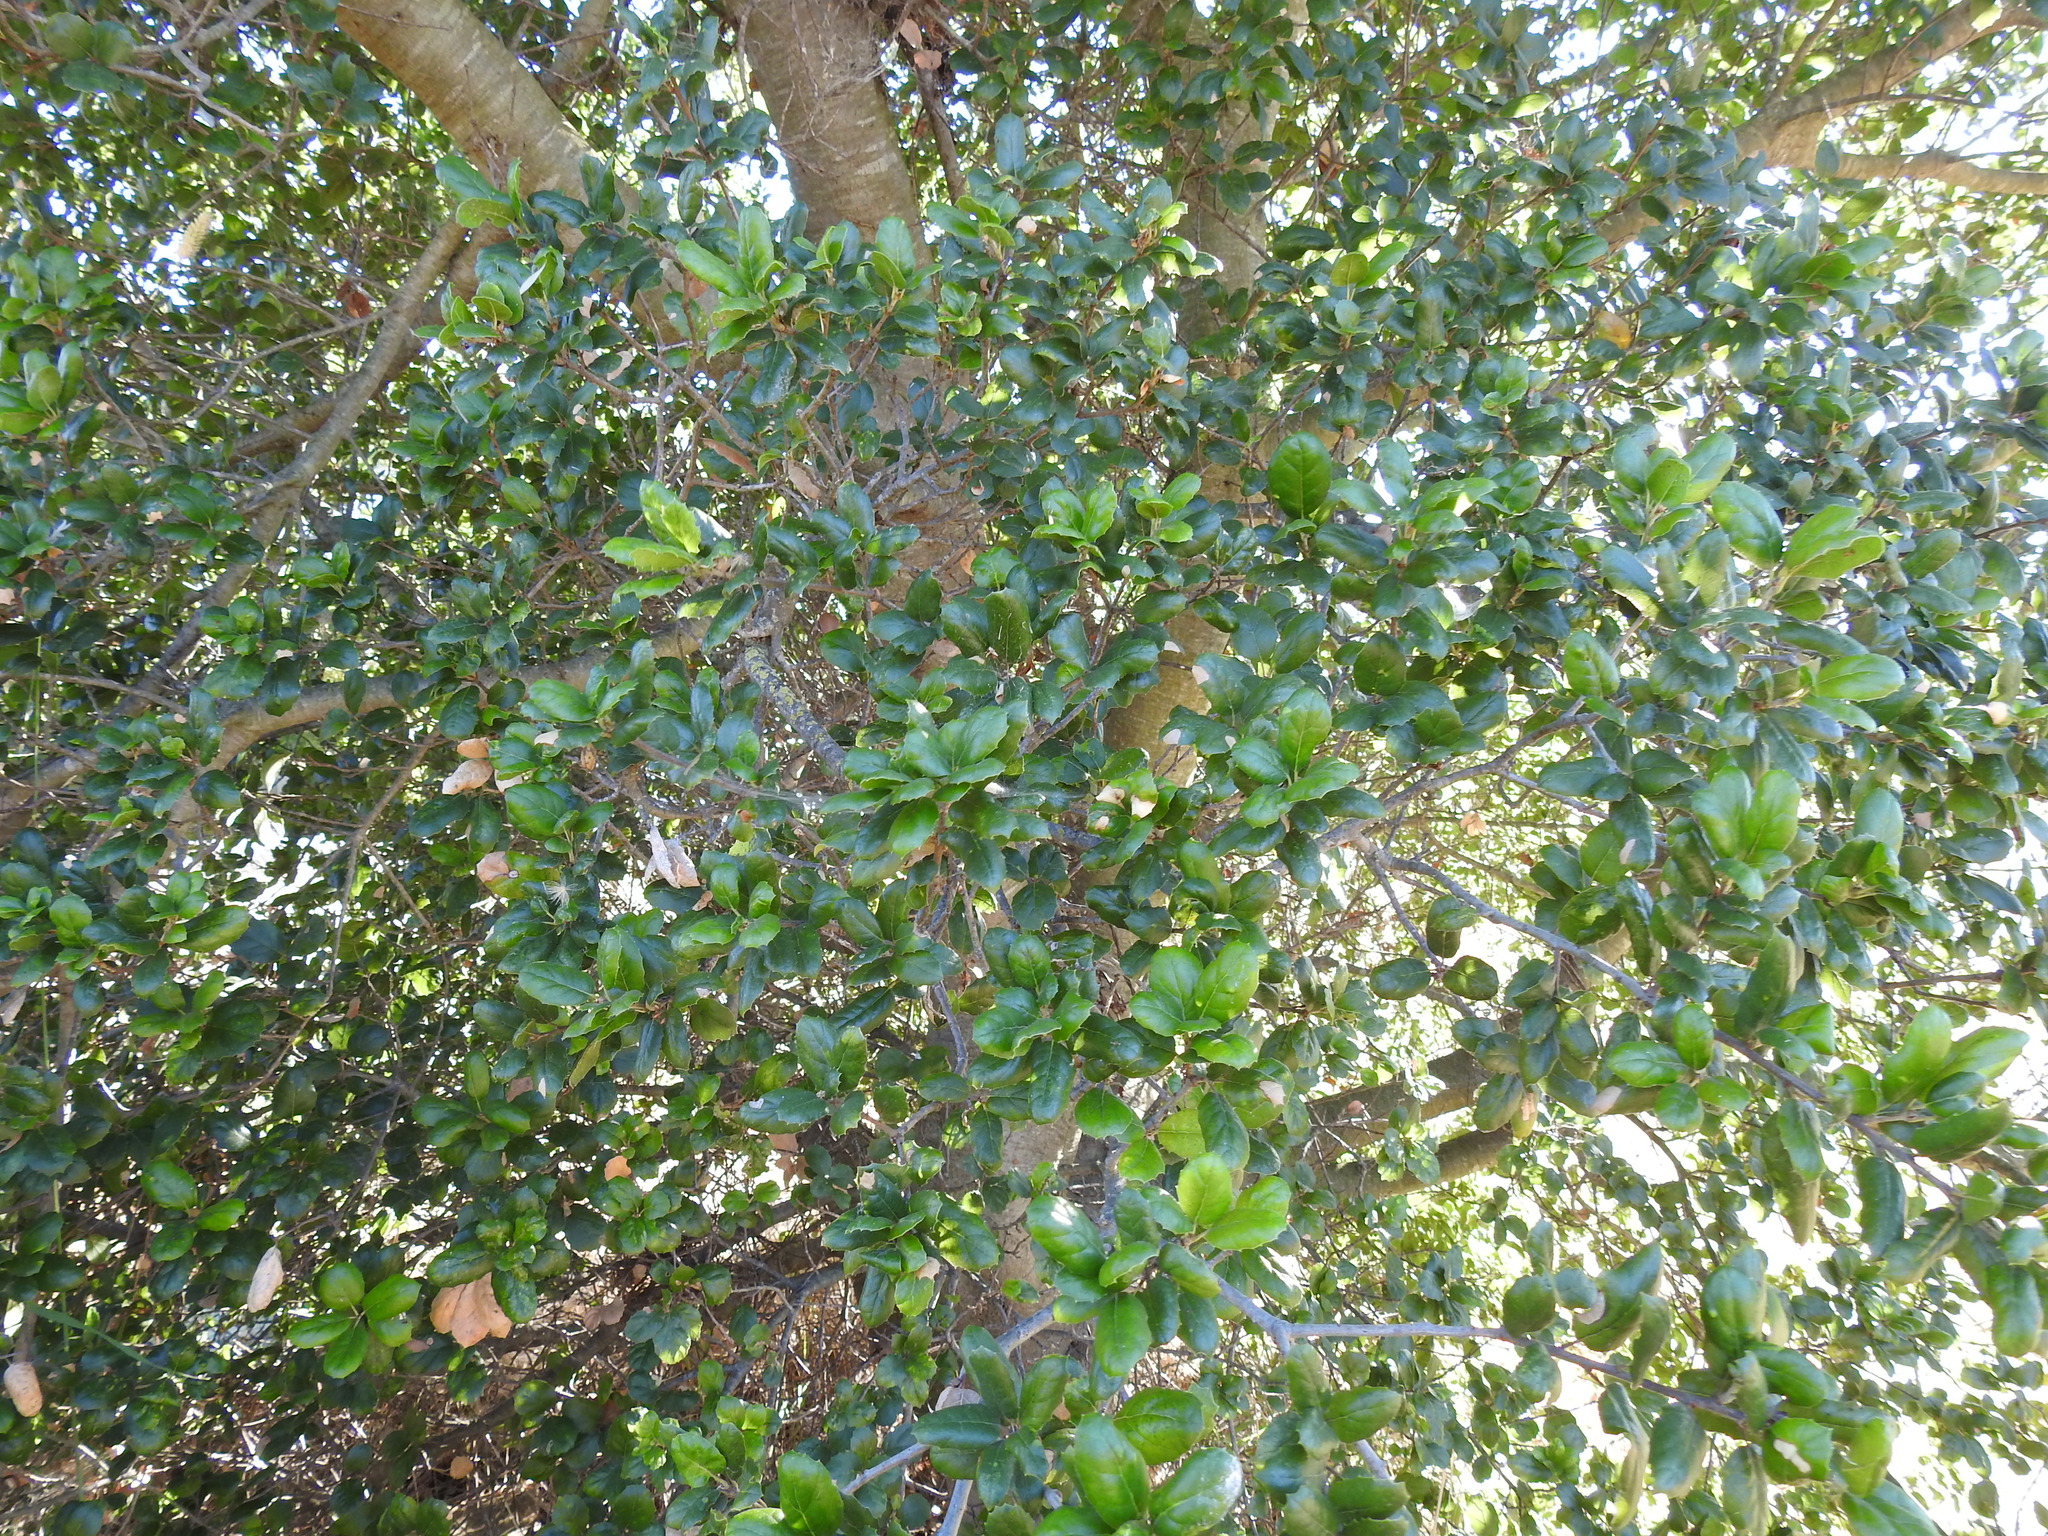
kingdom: Plantae
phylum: Tracheophyta
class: Magnoliopsida
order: Fagales
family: Fagaceae
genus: Quercus
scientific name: Quercus agrifolia
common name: California live oak
